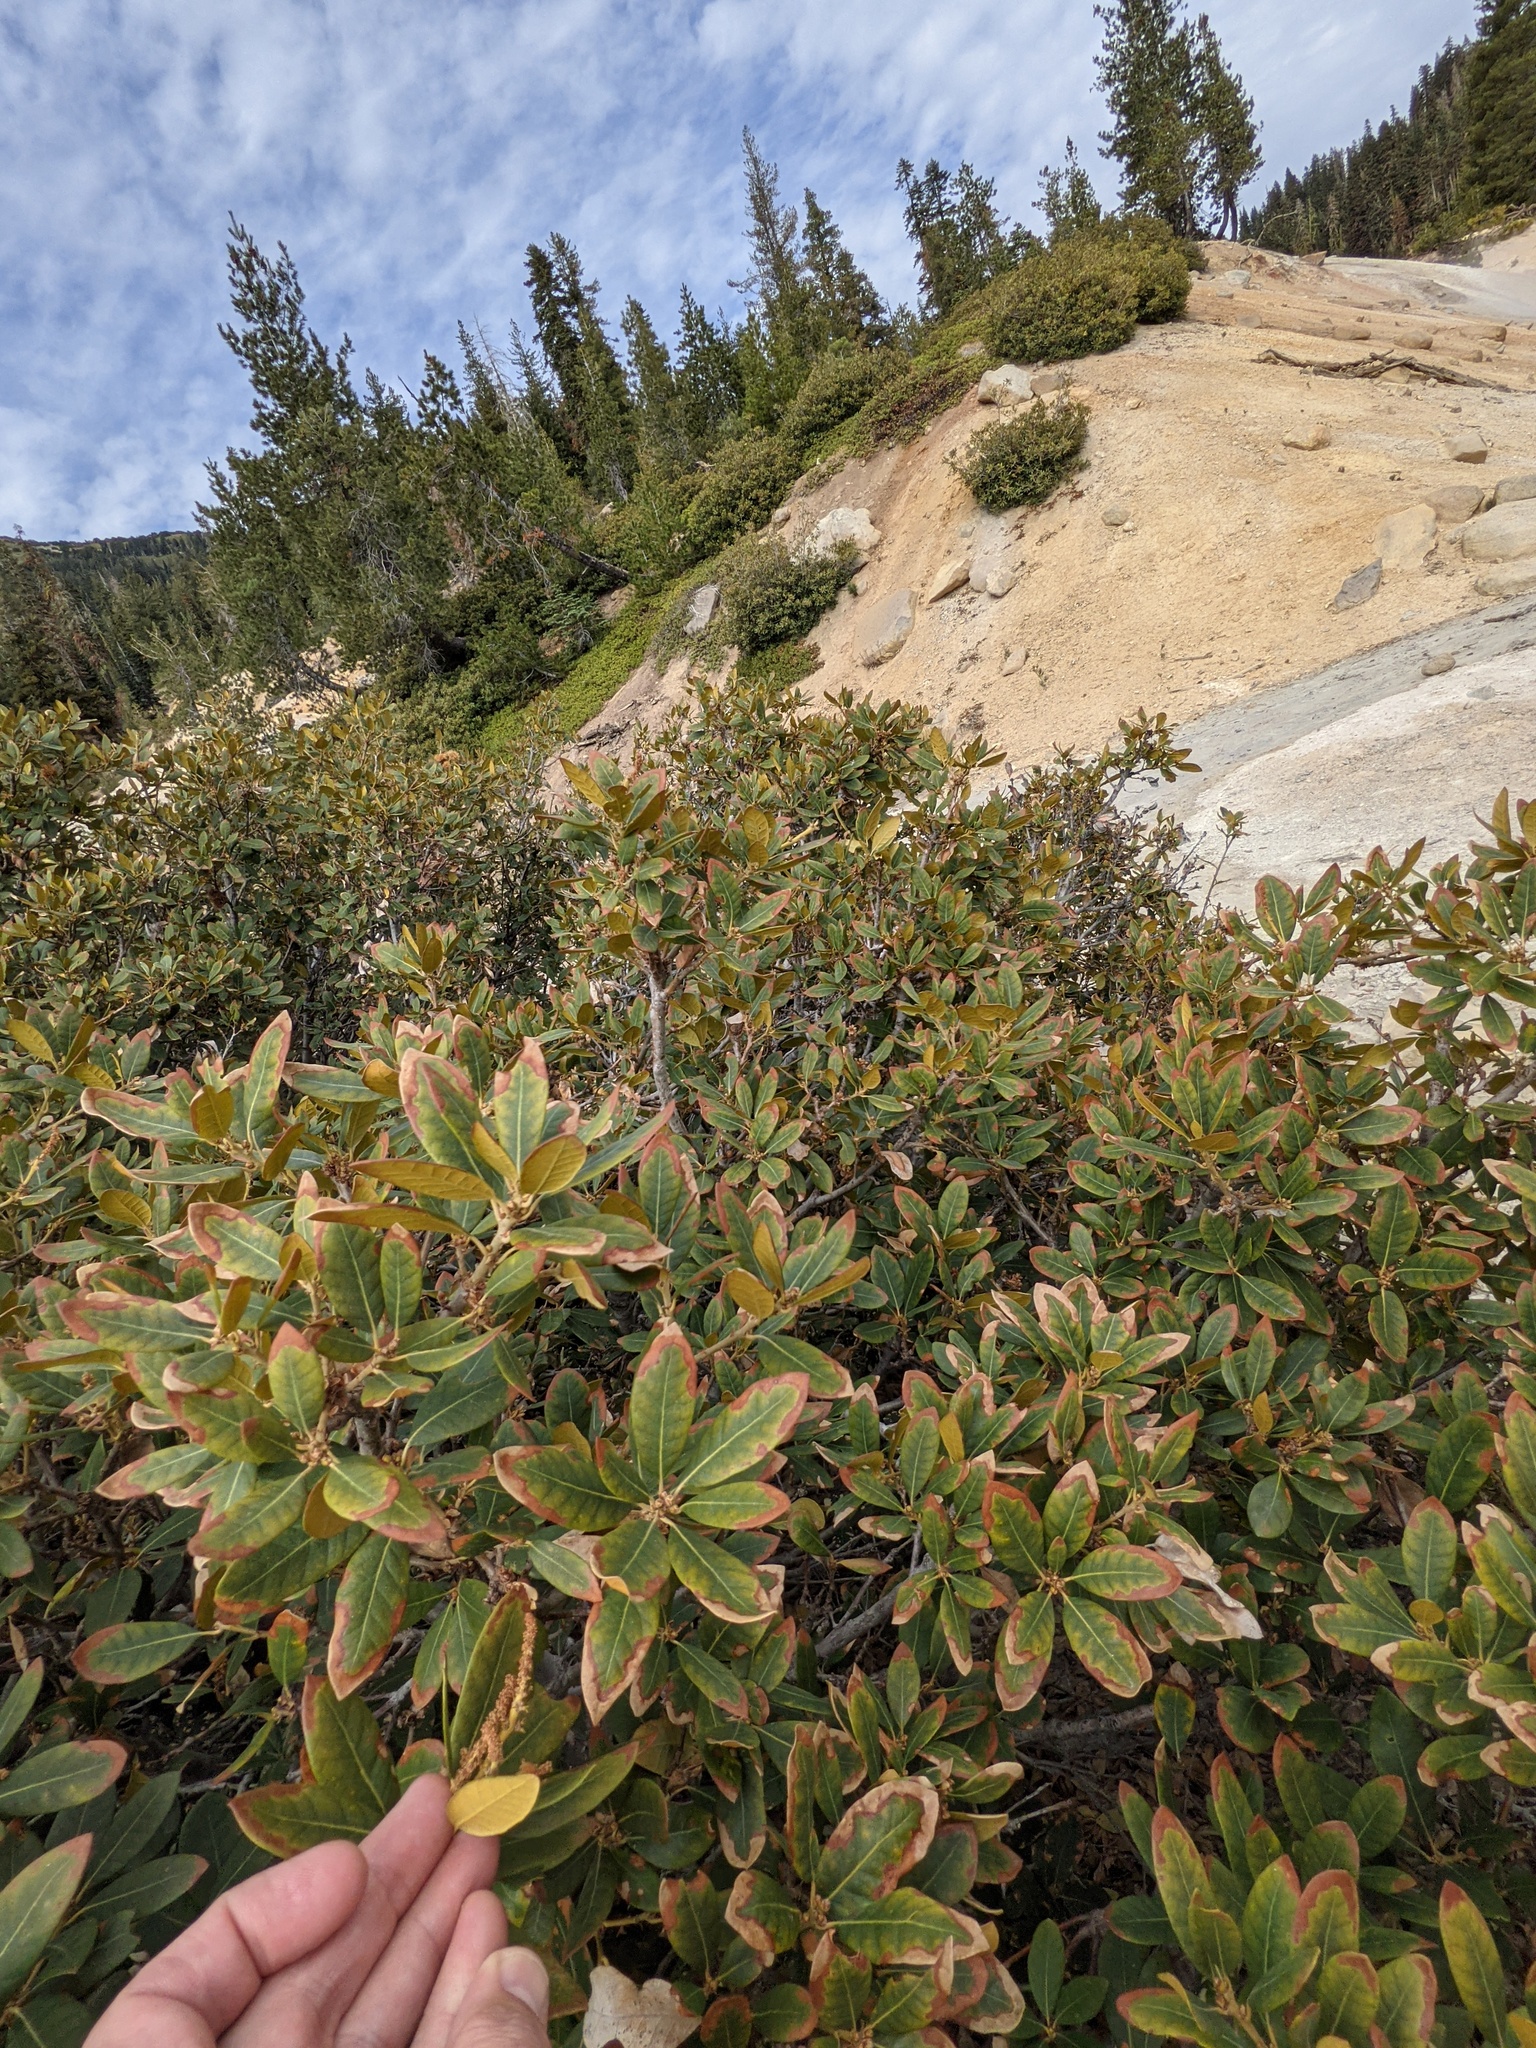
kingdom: Plantae
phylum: Tracheophyta
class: Magnoliopsida
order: Fagales
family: Fagaceae
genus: Chrysolepis
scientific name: Chrysolepis sempervirens
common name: Bush chinquapin
